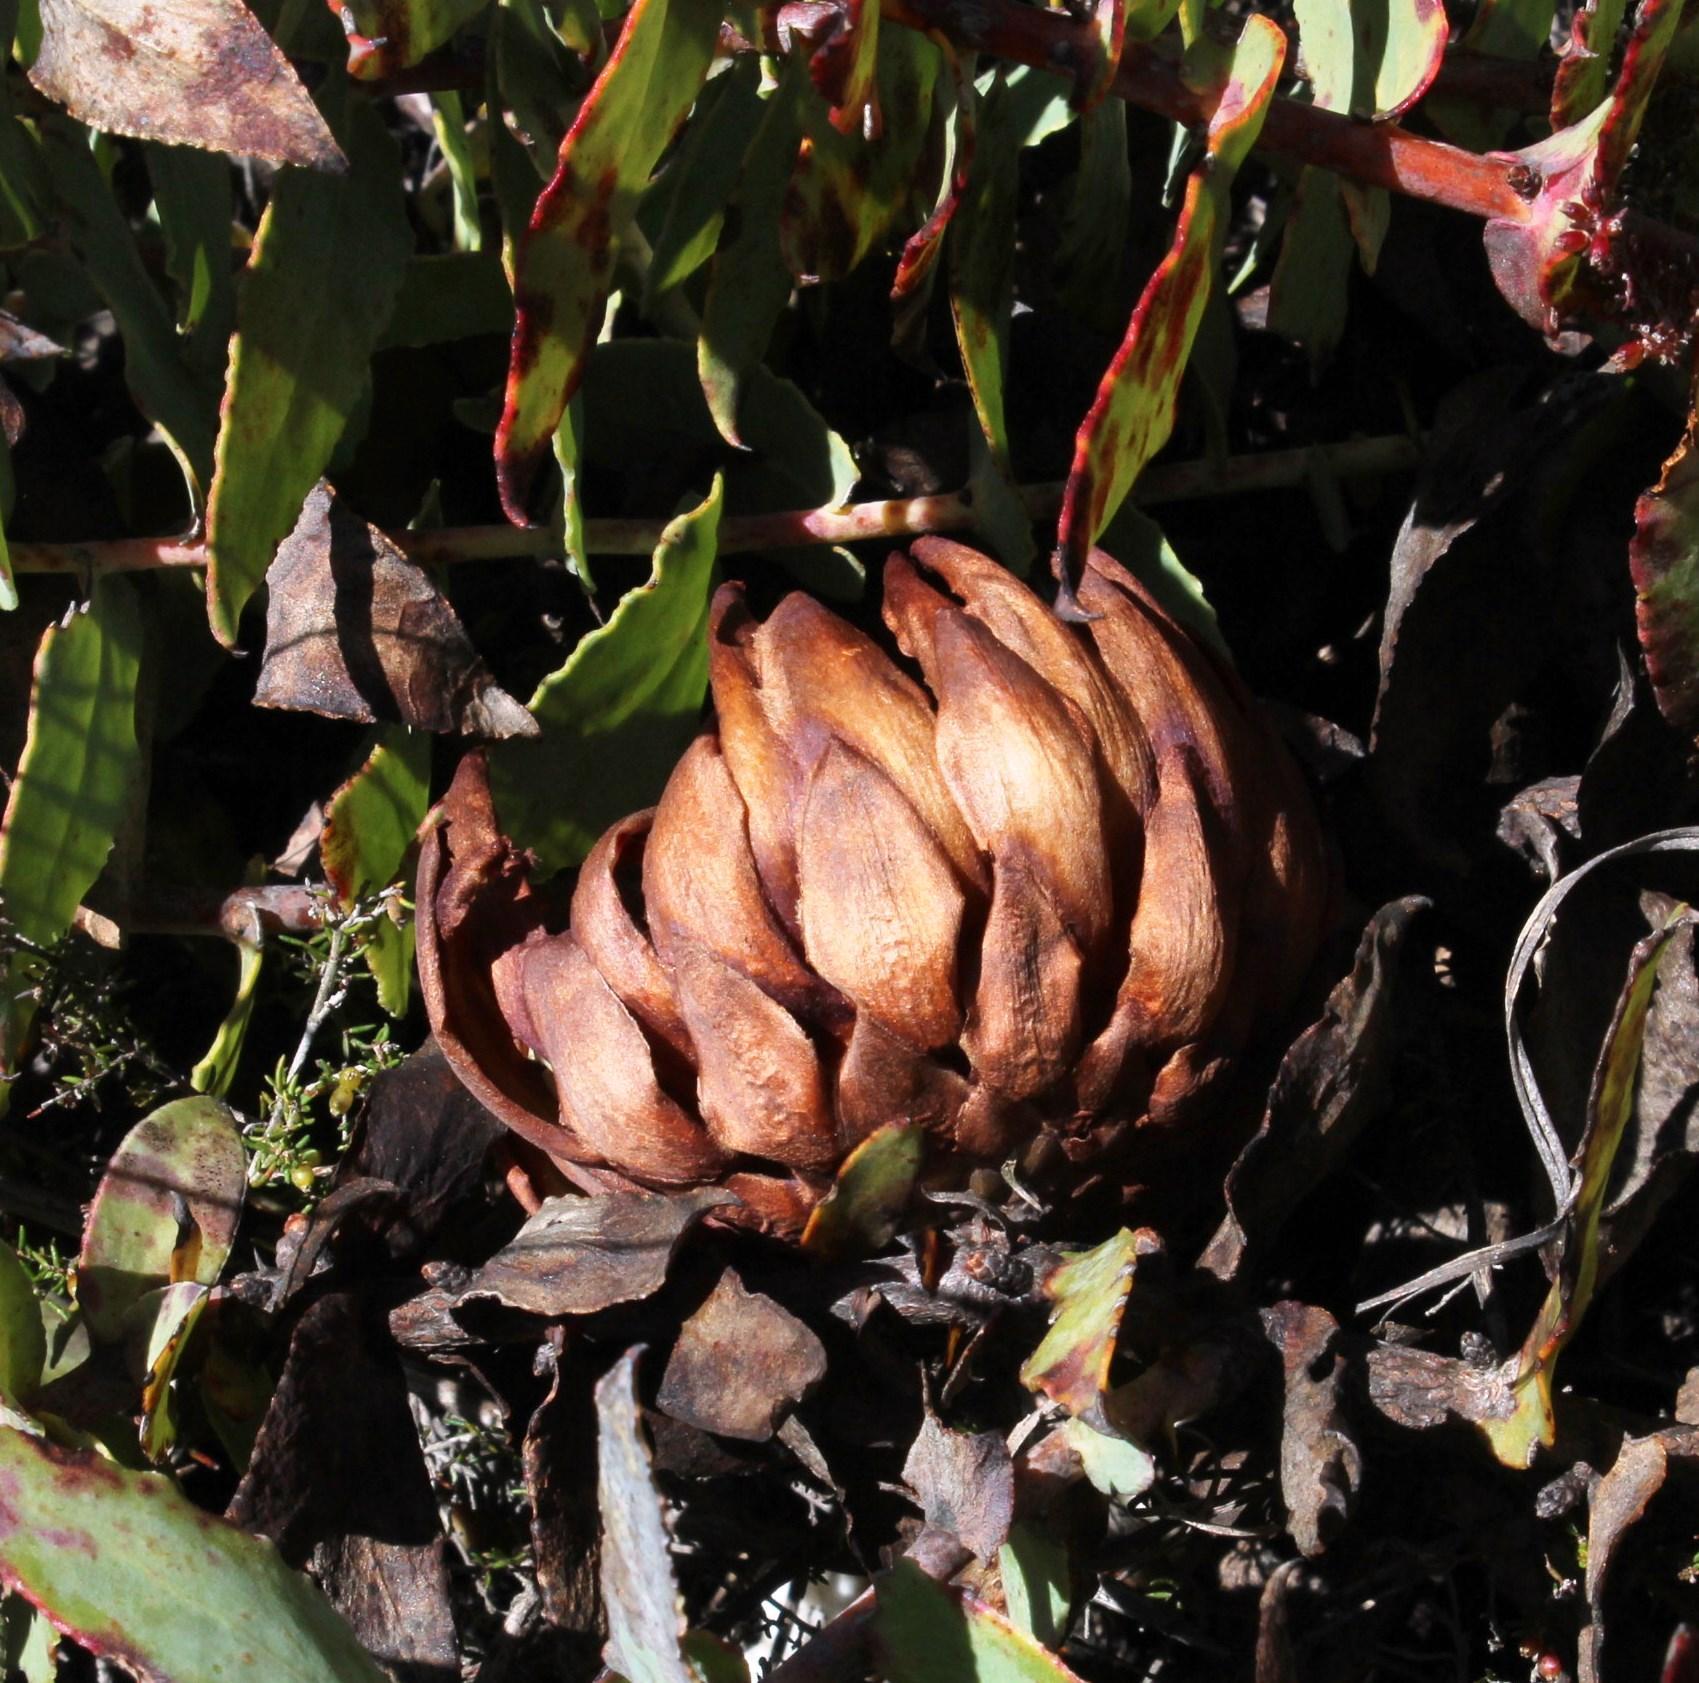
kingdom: Plantae
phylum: Tracheophyta
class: Magnoliopsida
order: Proteales
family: Proteaceae
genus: Protea
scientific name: Protea amplexicaulis
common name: Clasping-leaf sugarbush
